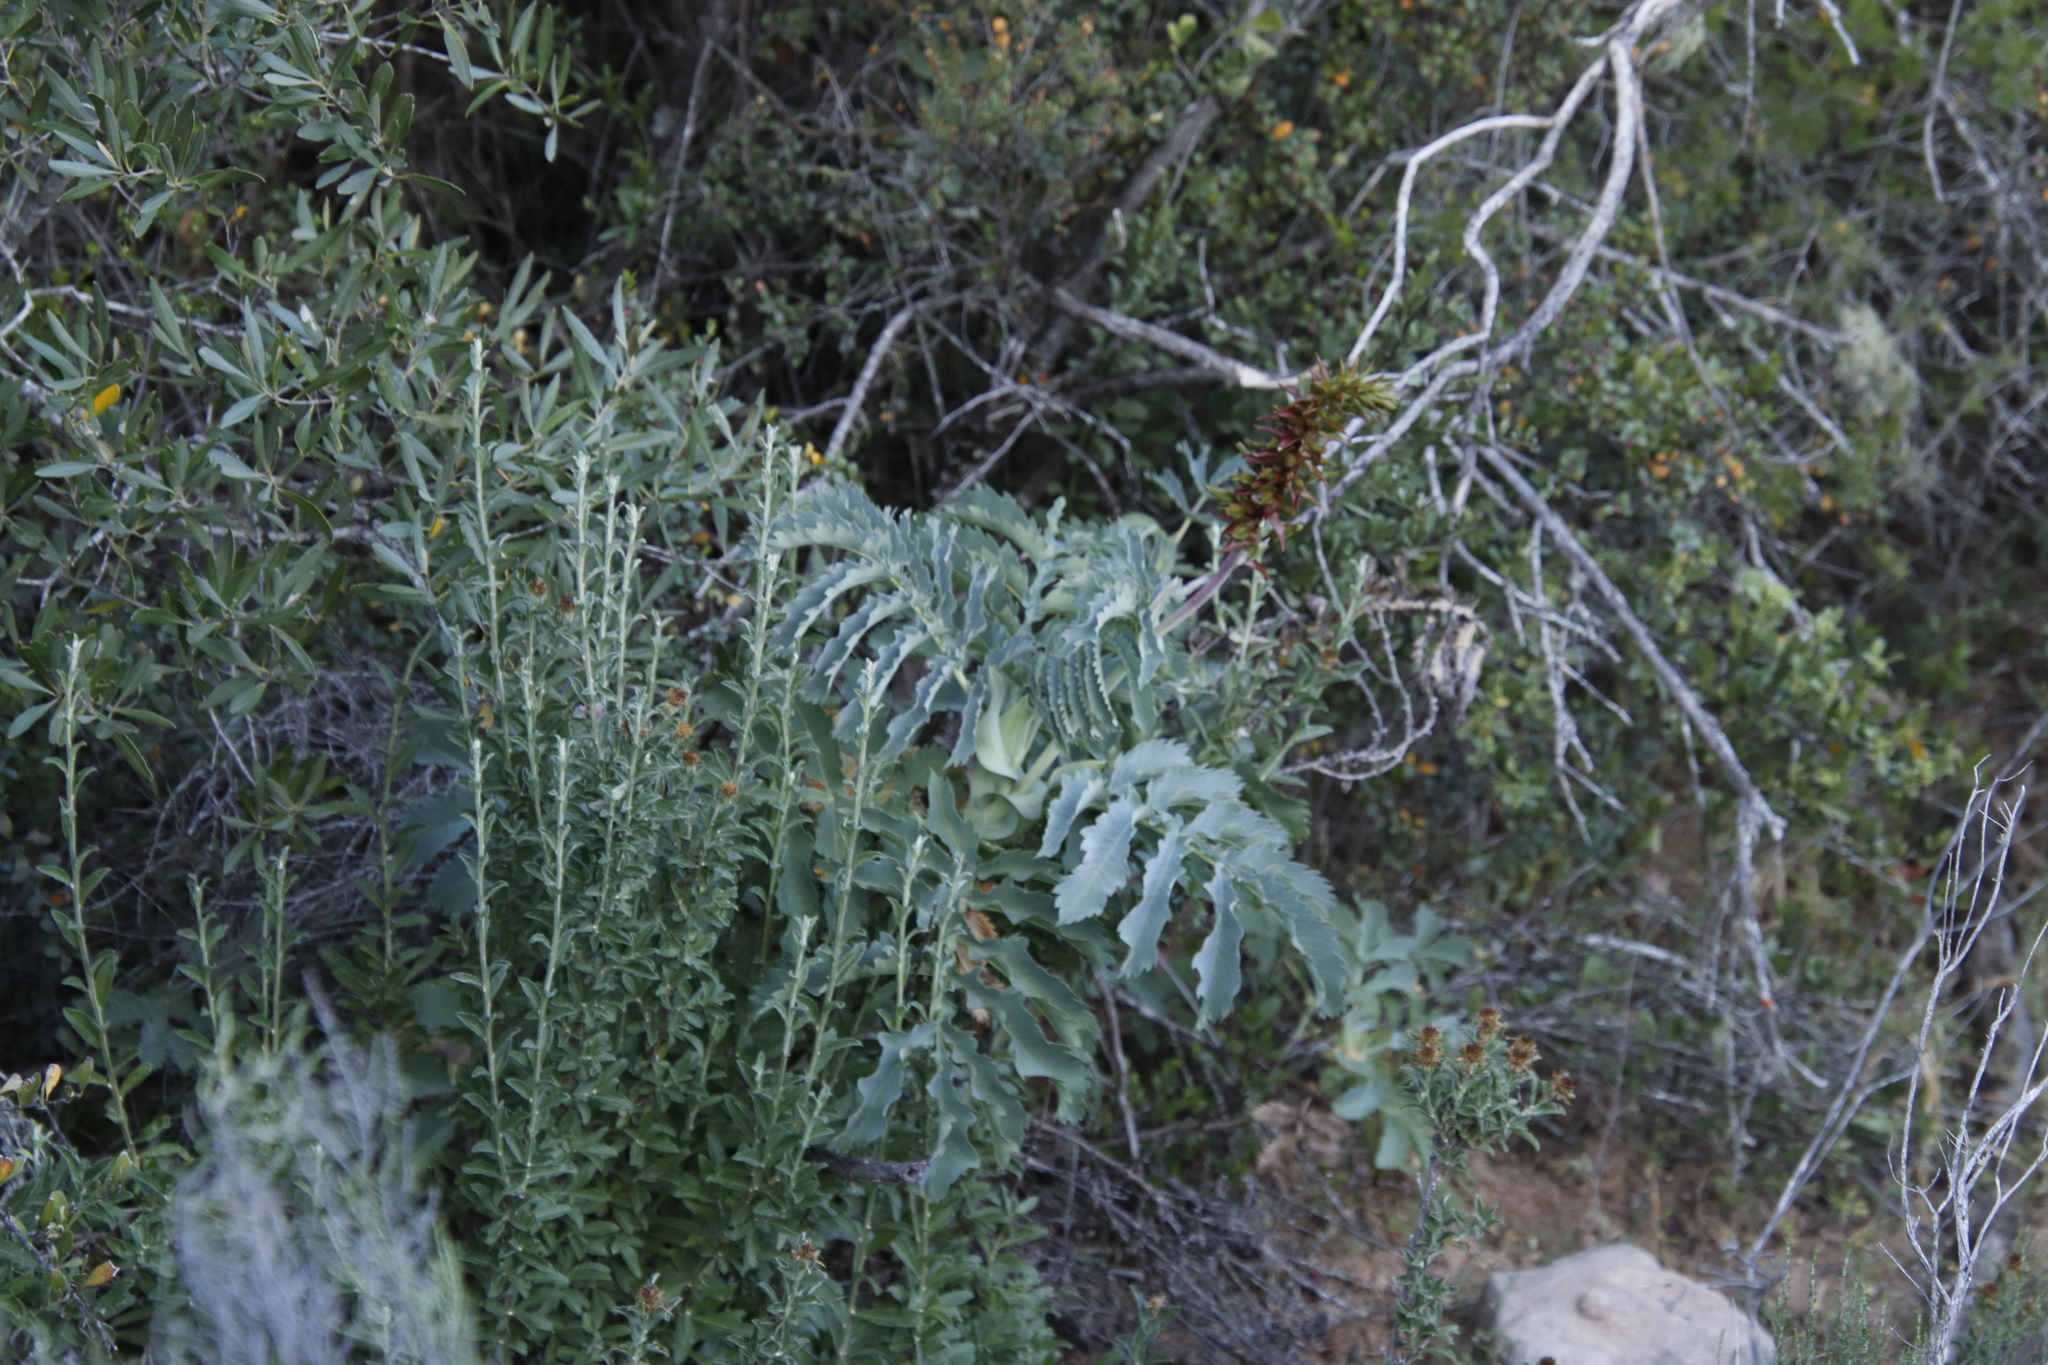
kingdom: Plantae
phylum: Tracheophyta
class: Magnoliopsida
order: Geraniales
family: Melianthaceae
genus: Melianthus
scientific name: Melianthus major
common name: Honey-flower
